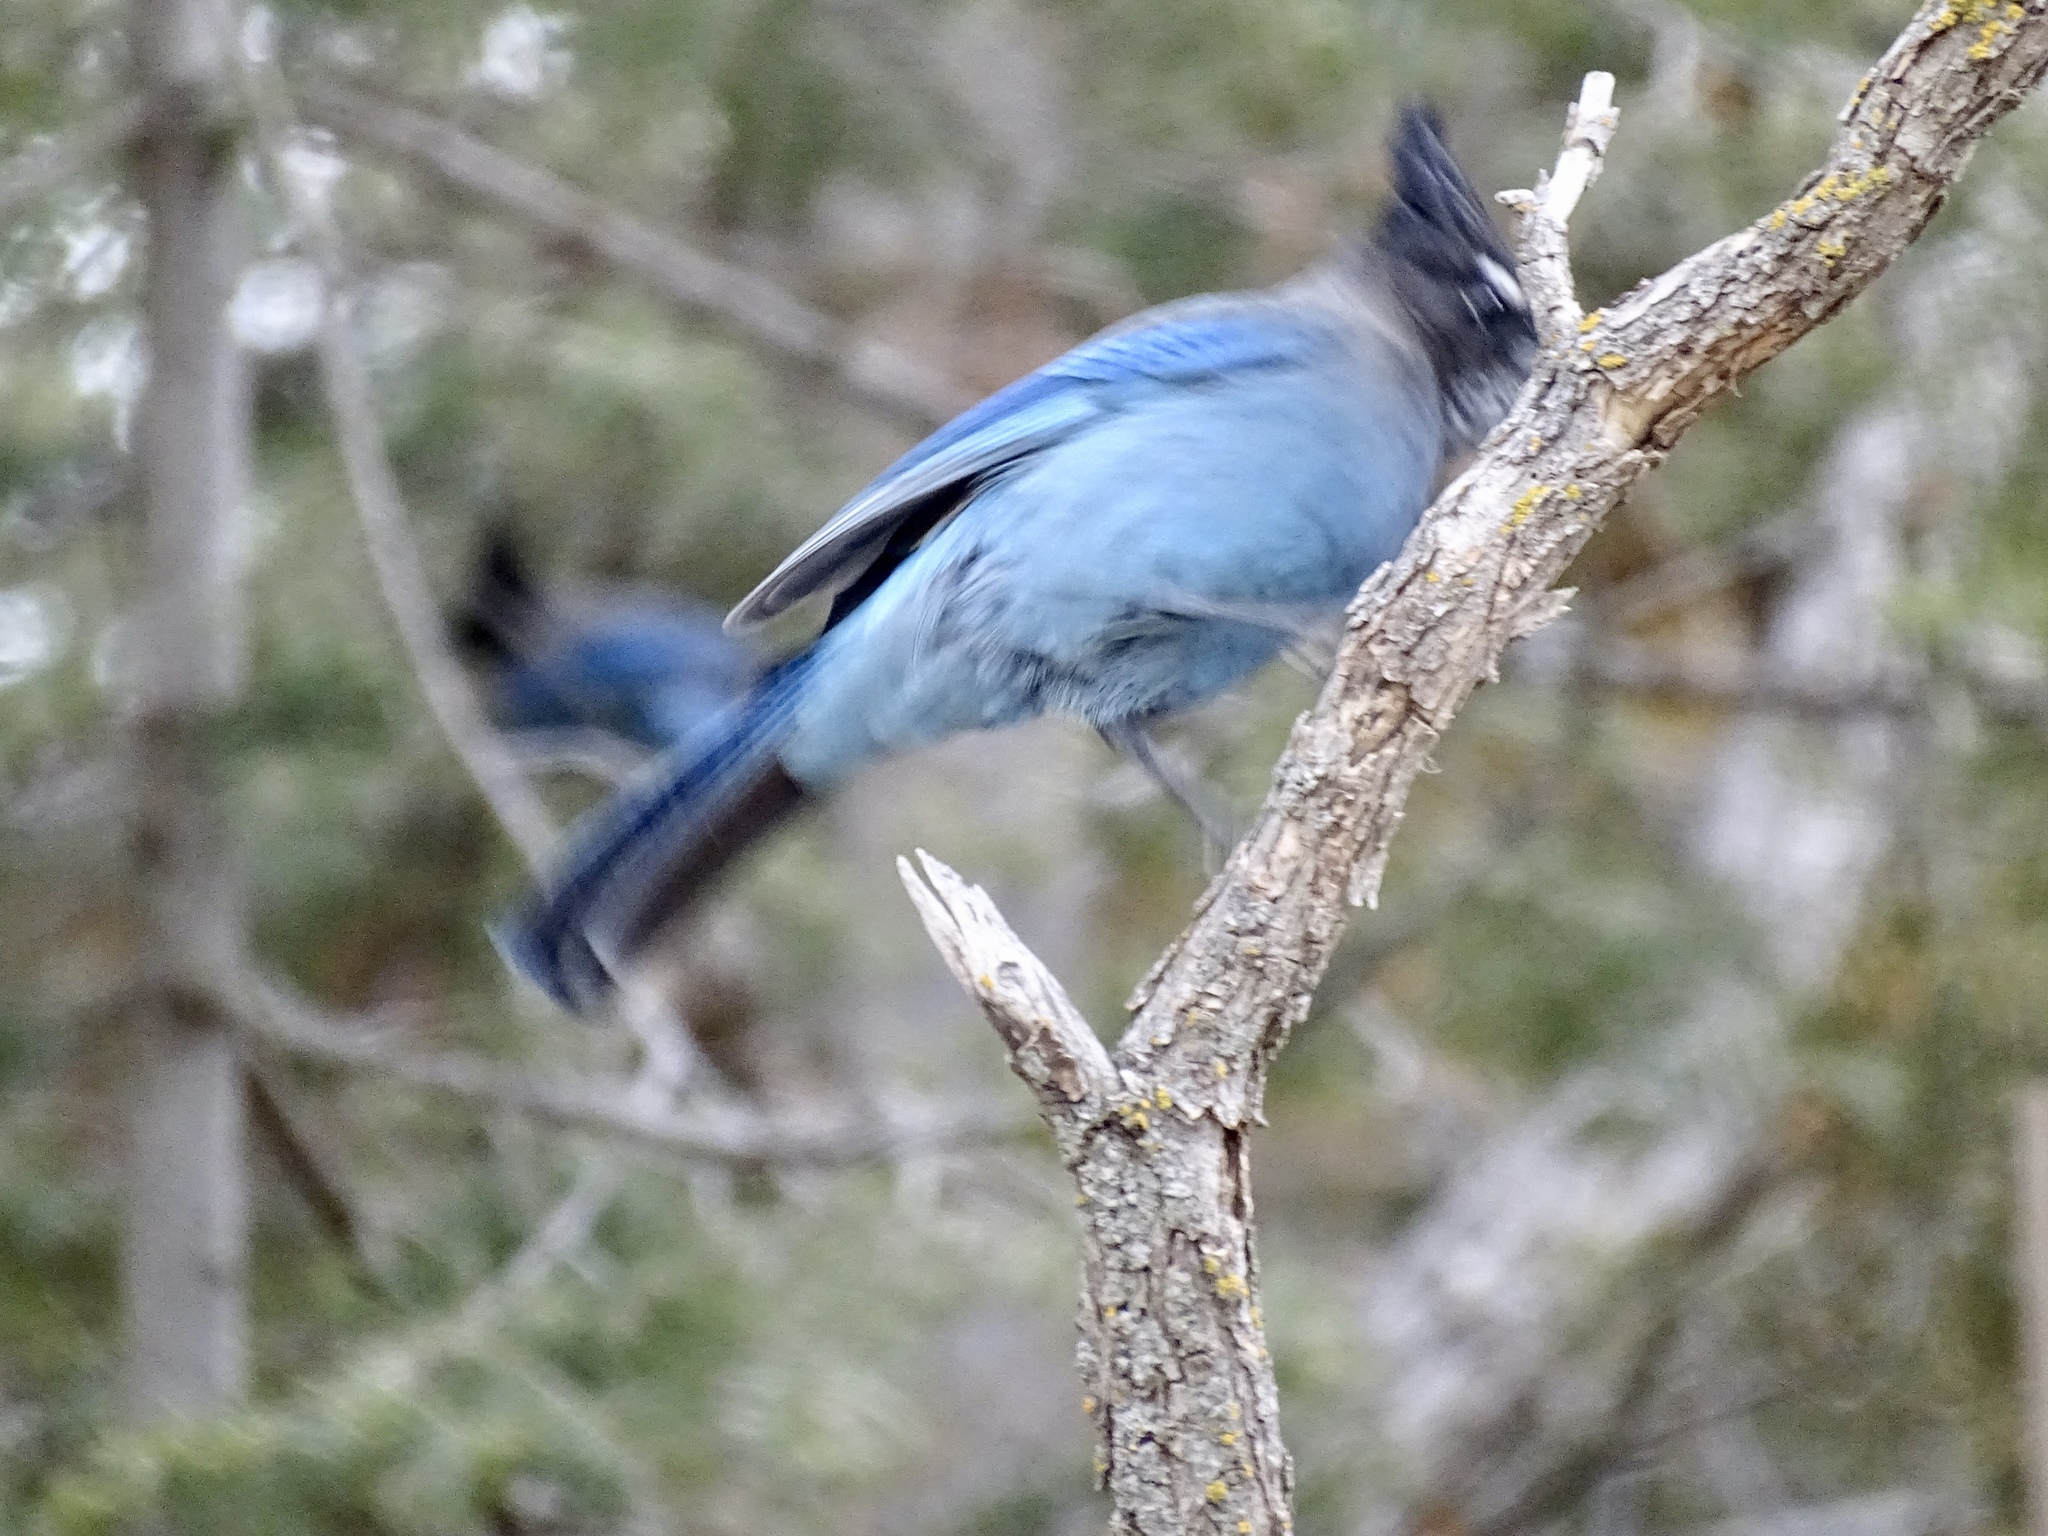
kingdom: Animalia
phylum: Chordata
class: Aves
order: Passeriformes
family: Corvidae
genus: Cyanocitta
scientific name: Cyanocitta stelleri
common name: Steller's jay
